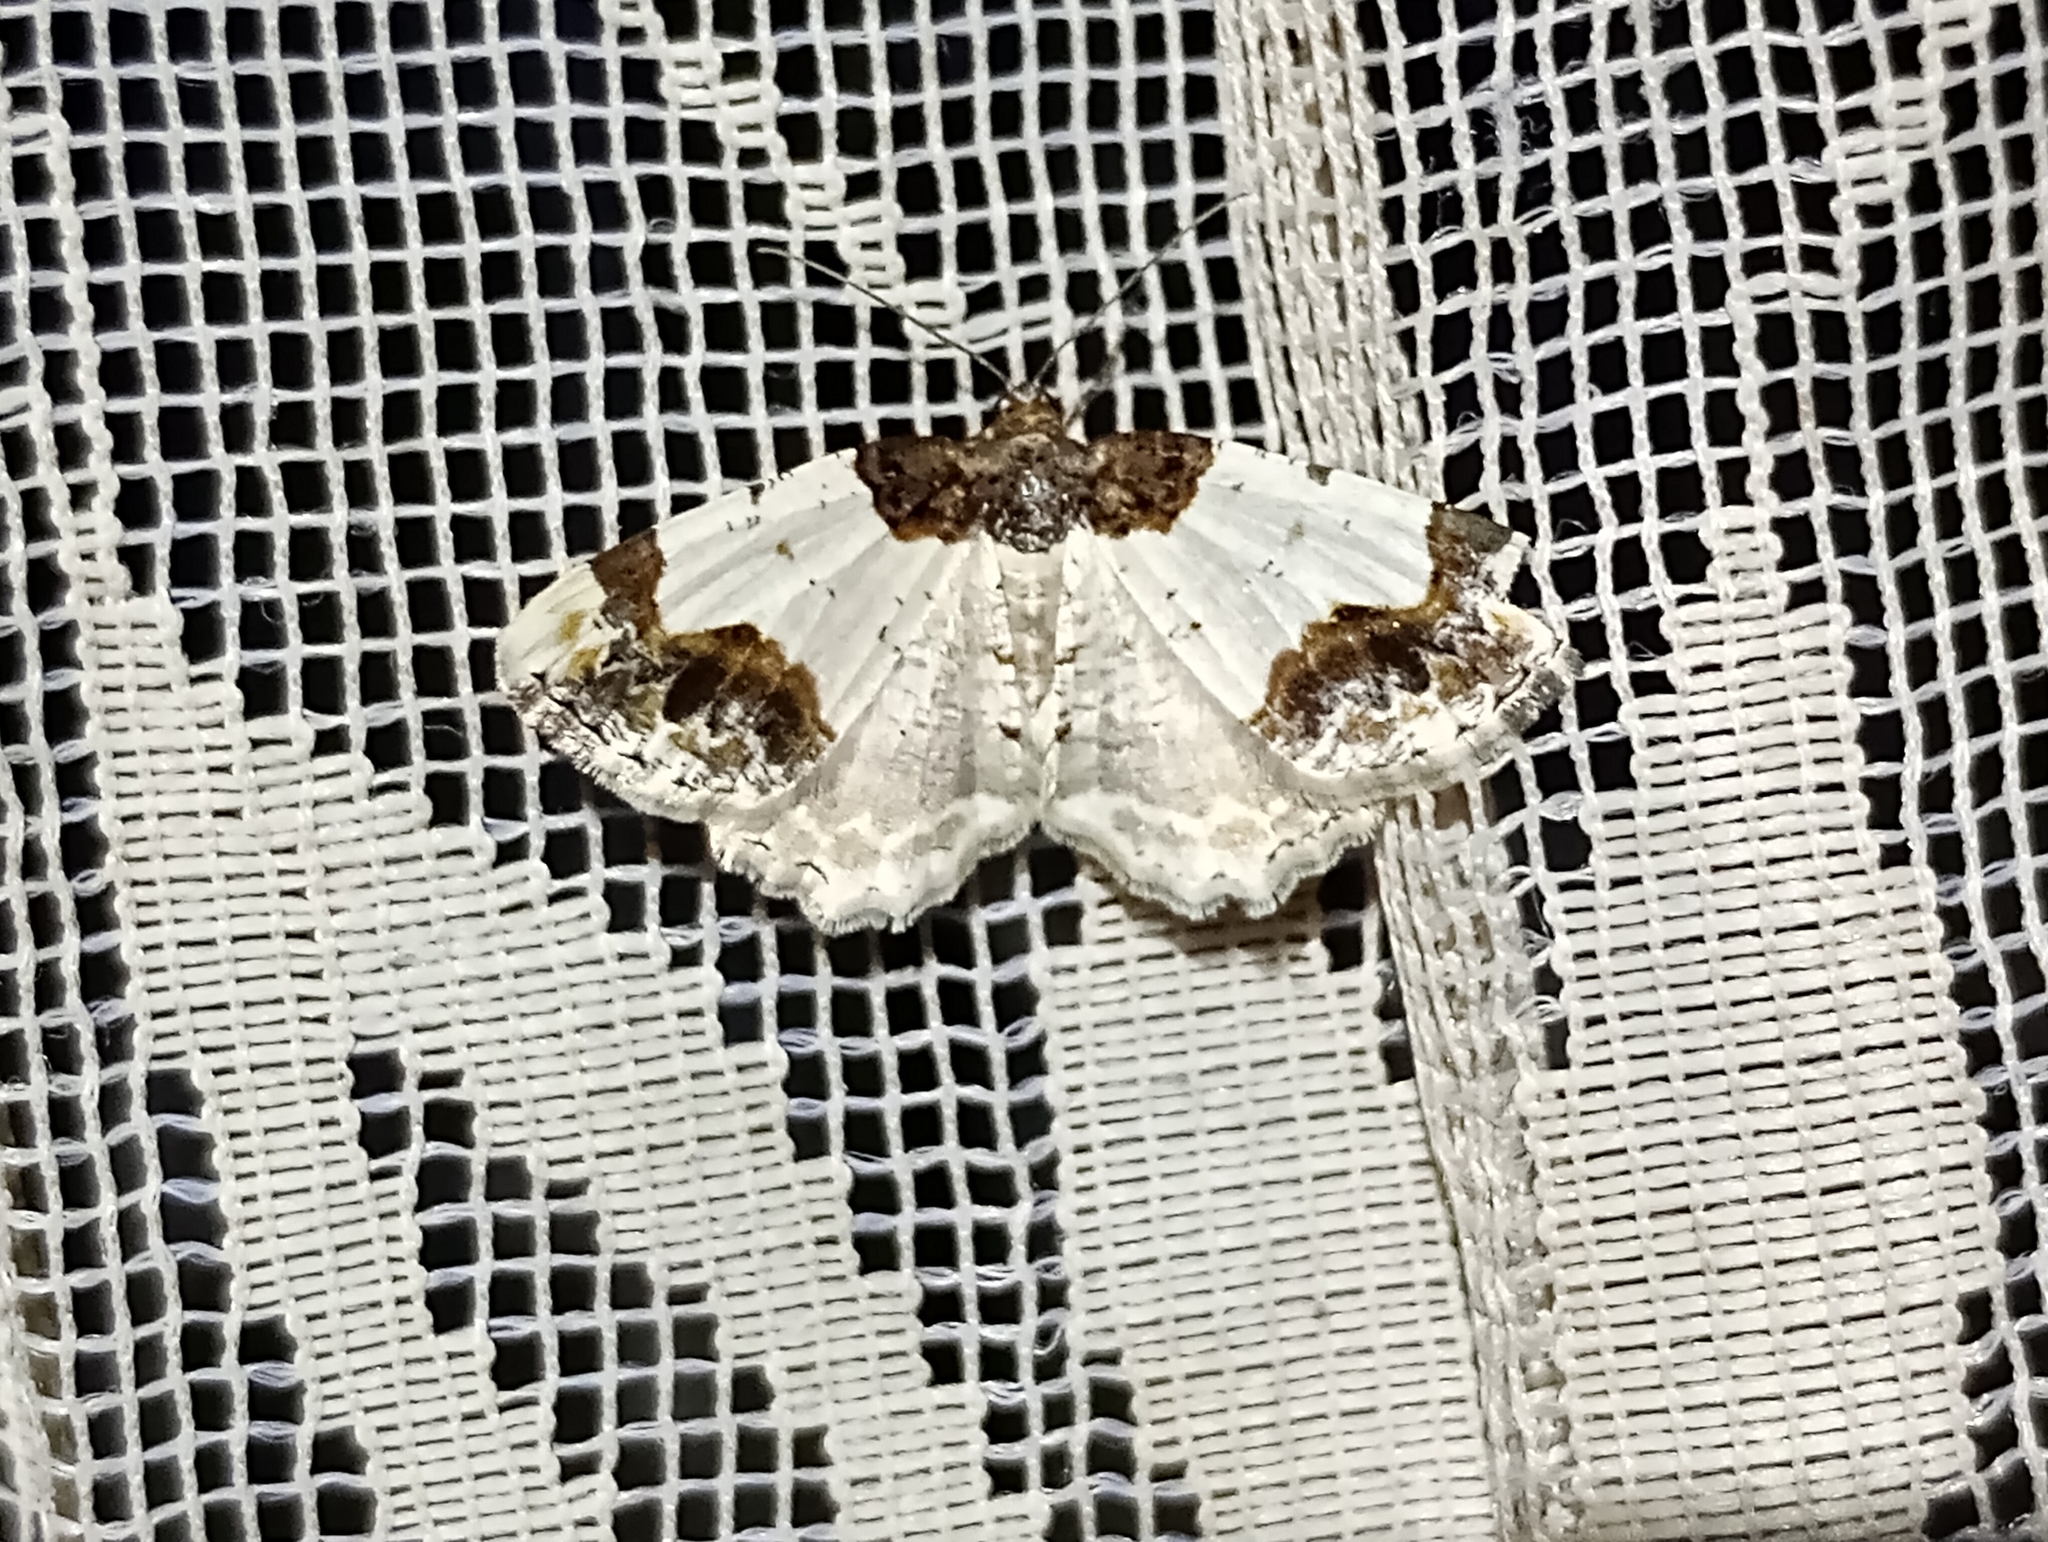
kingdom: Animalia
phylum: Arthropoda
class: Insecta
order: Lepidoptera
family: Geometridae
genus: Ligdia
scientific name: Ligdia adustata
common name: Scorched carpet
